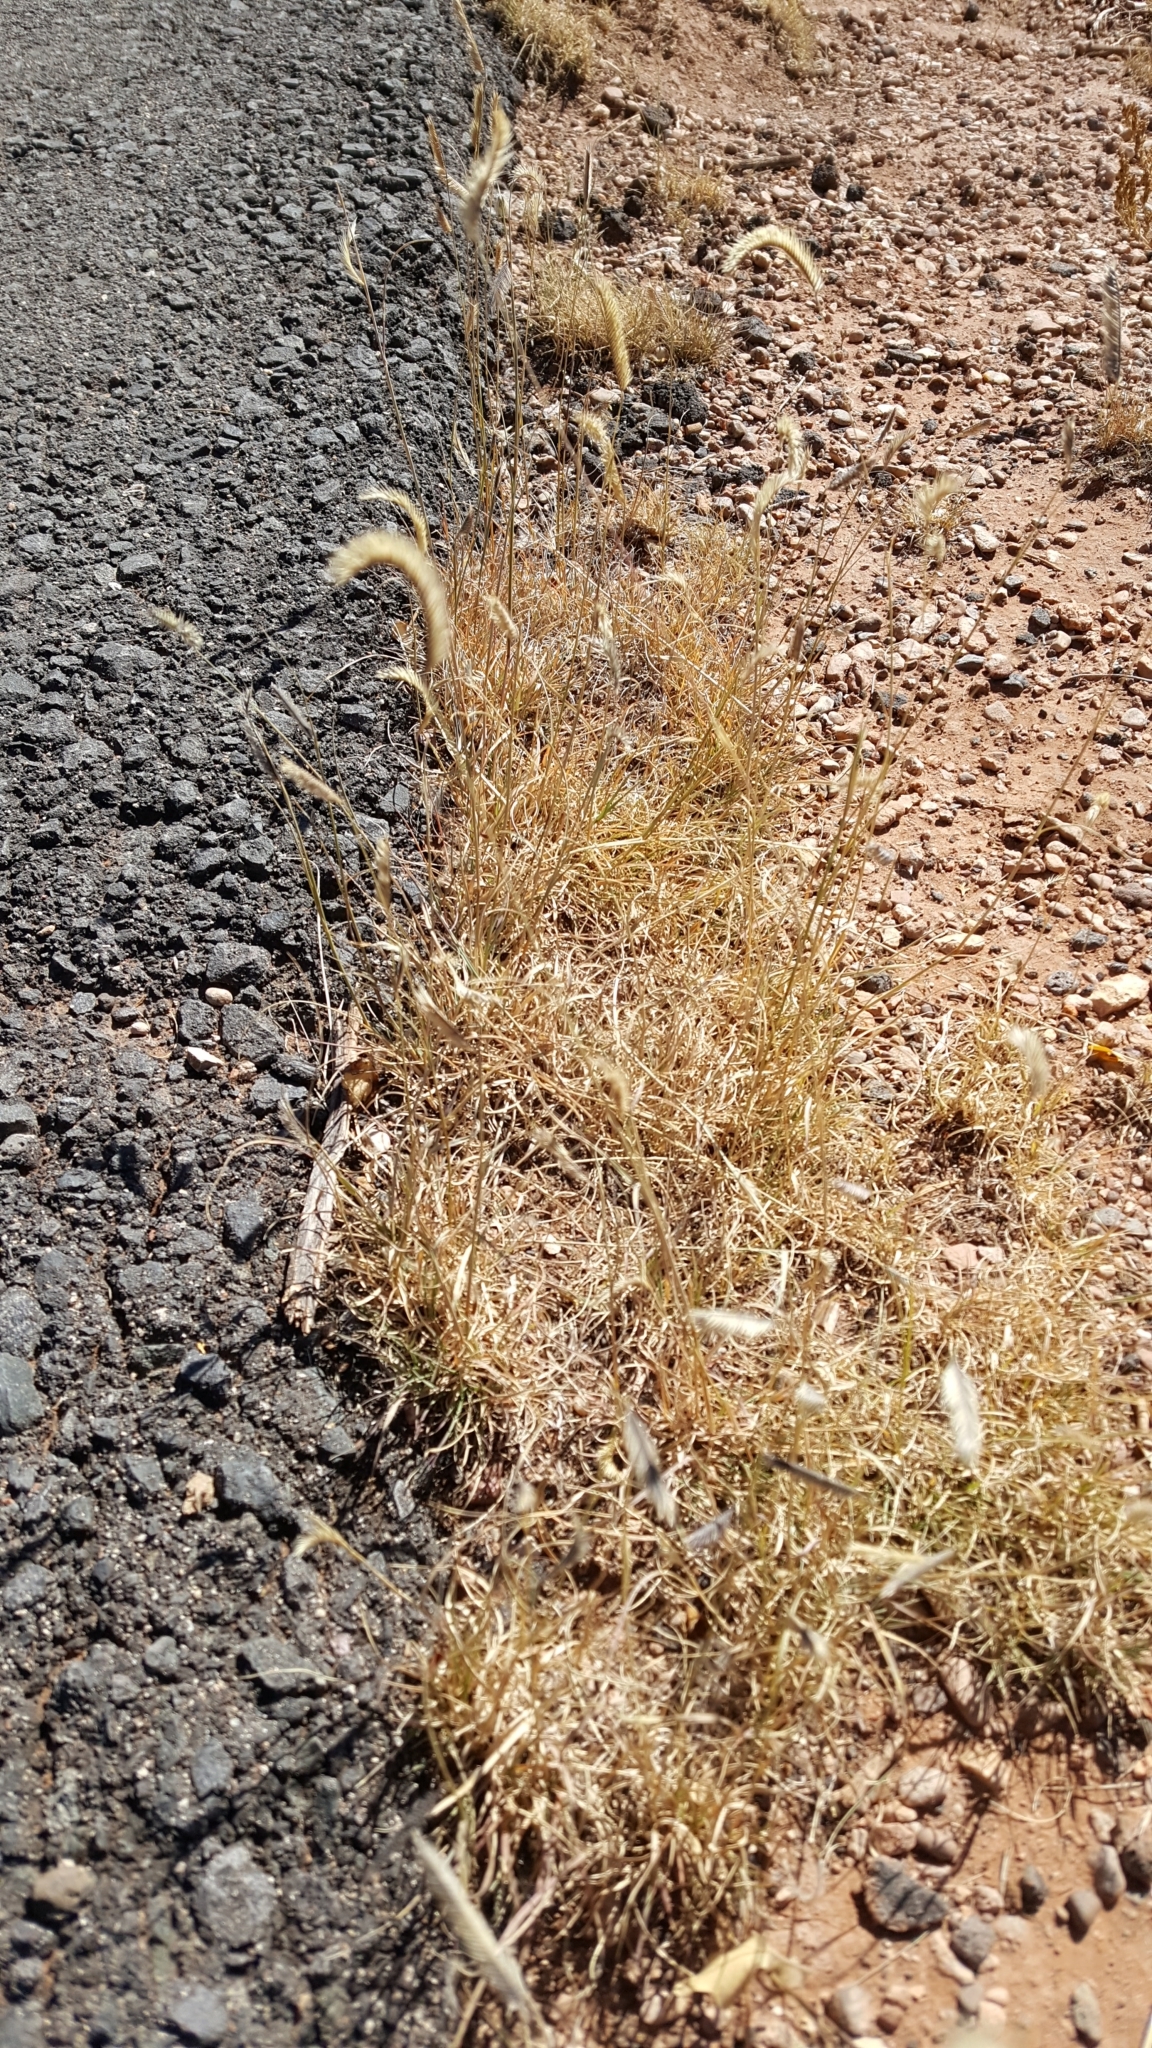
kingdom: Plantae
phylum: Tracheophyta
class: Liliopsida
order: Poales
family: Poaceae
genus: Bouteloua
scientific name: Bouteloua gracilis
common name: Blue grama
